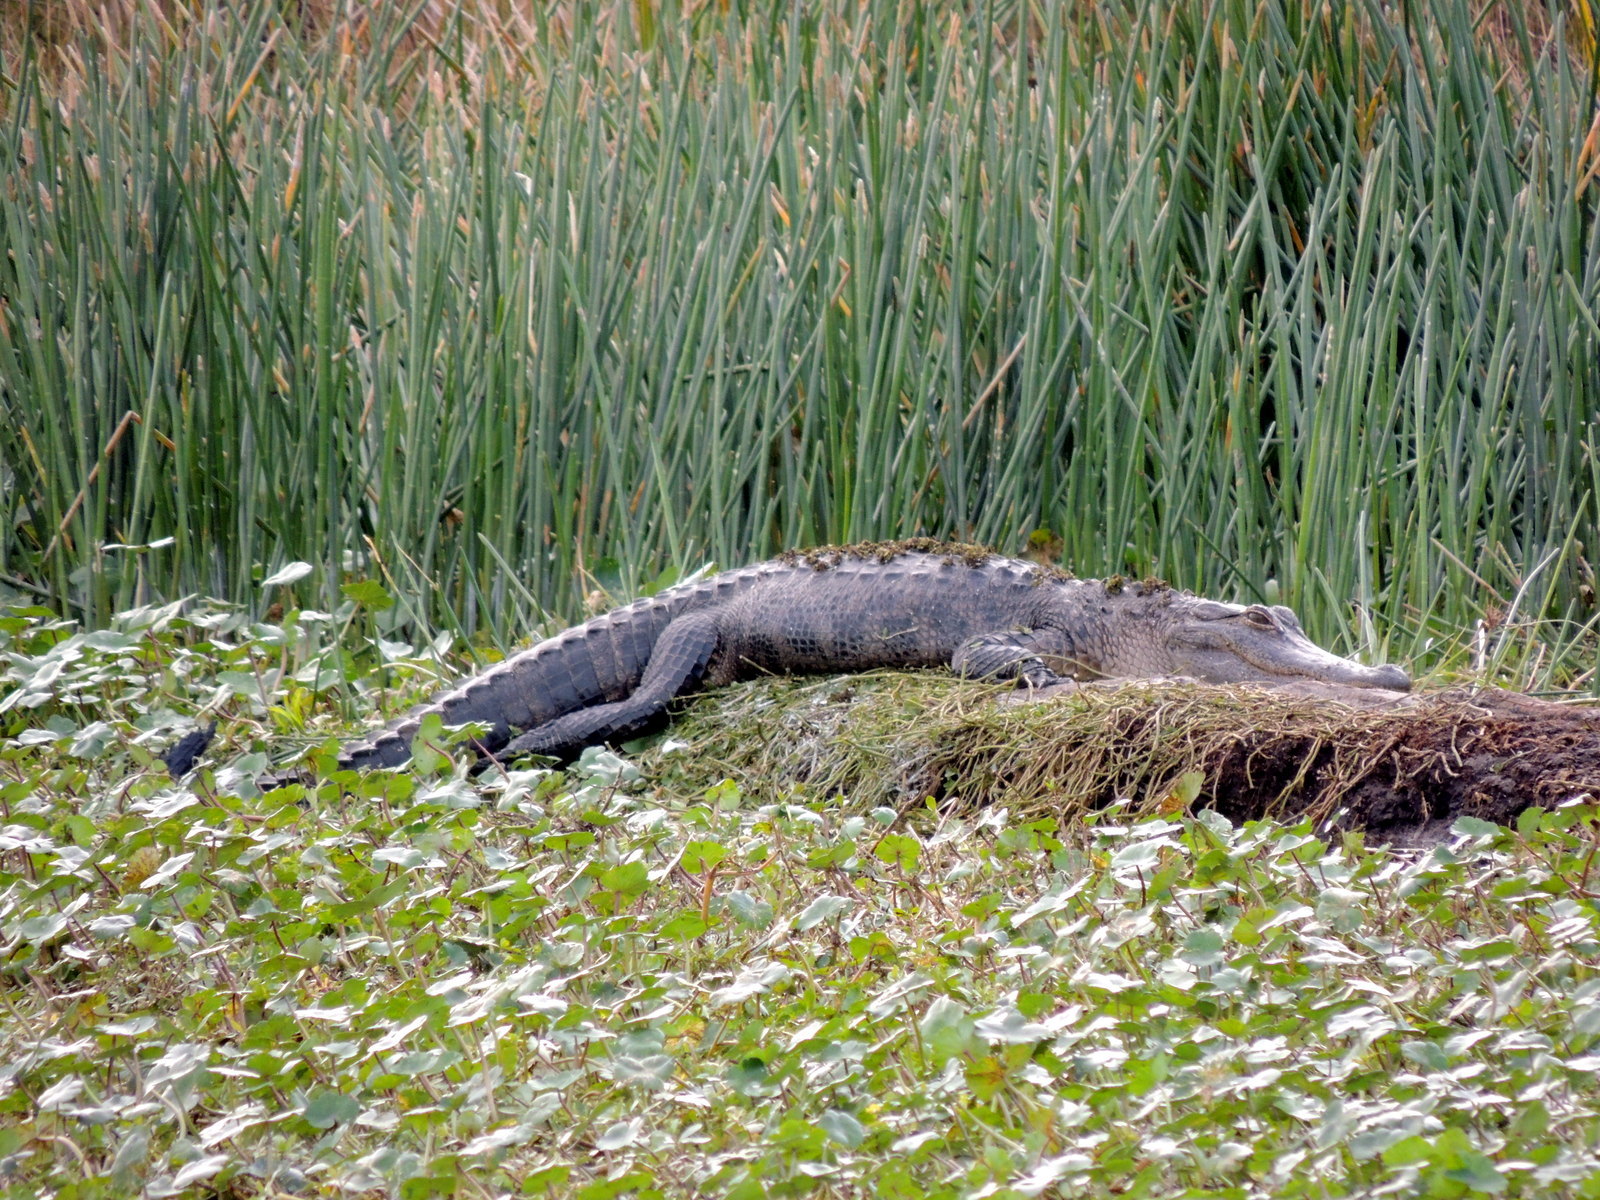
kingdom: Animalia
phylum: Chordata
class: Crocodylia
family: Alligatoridae
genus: Alligator
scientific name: Alligator mississippiensis
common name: American alligator
